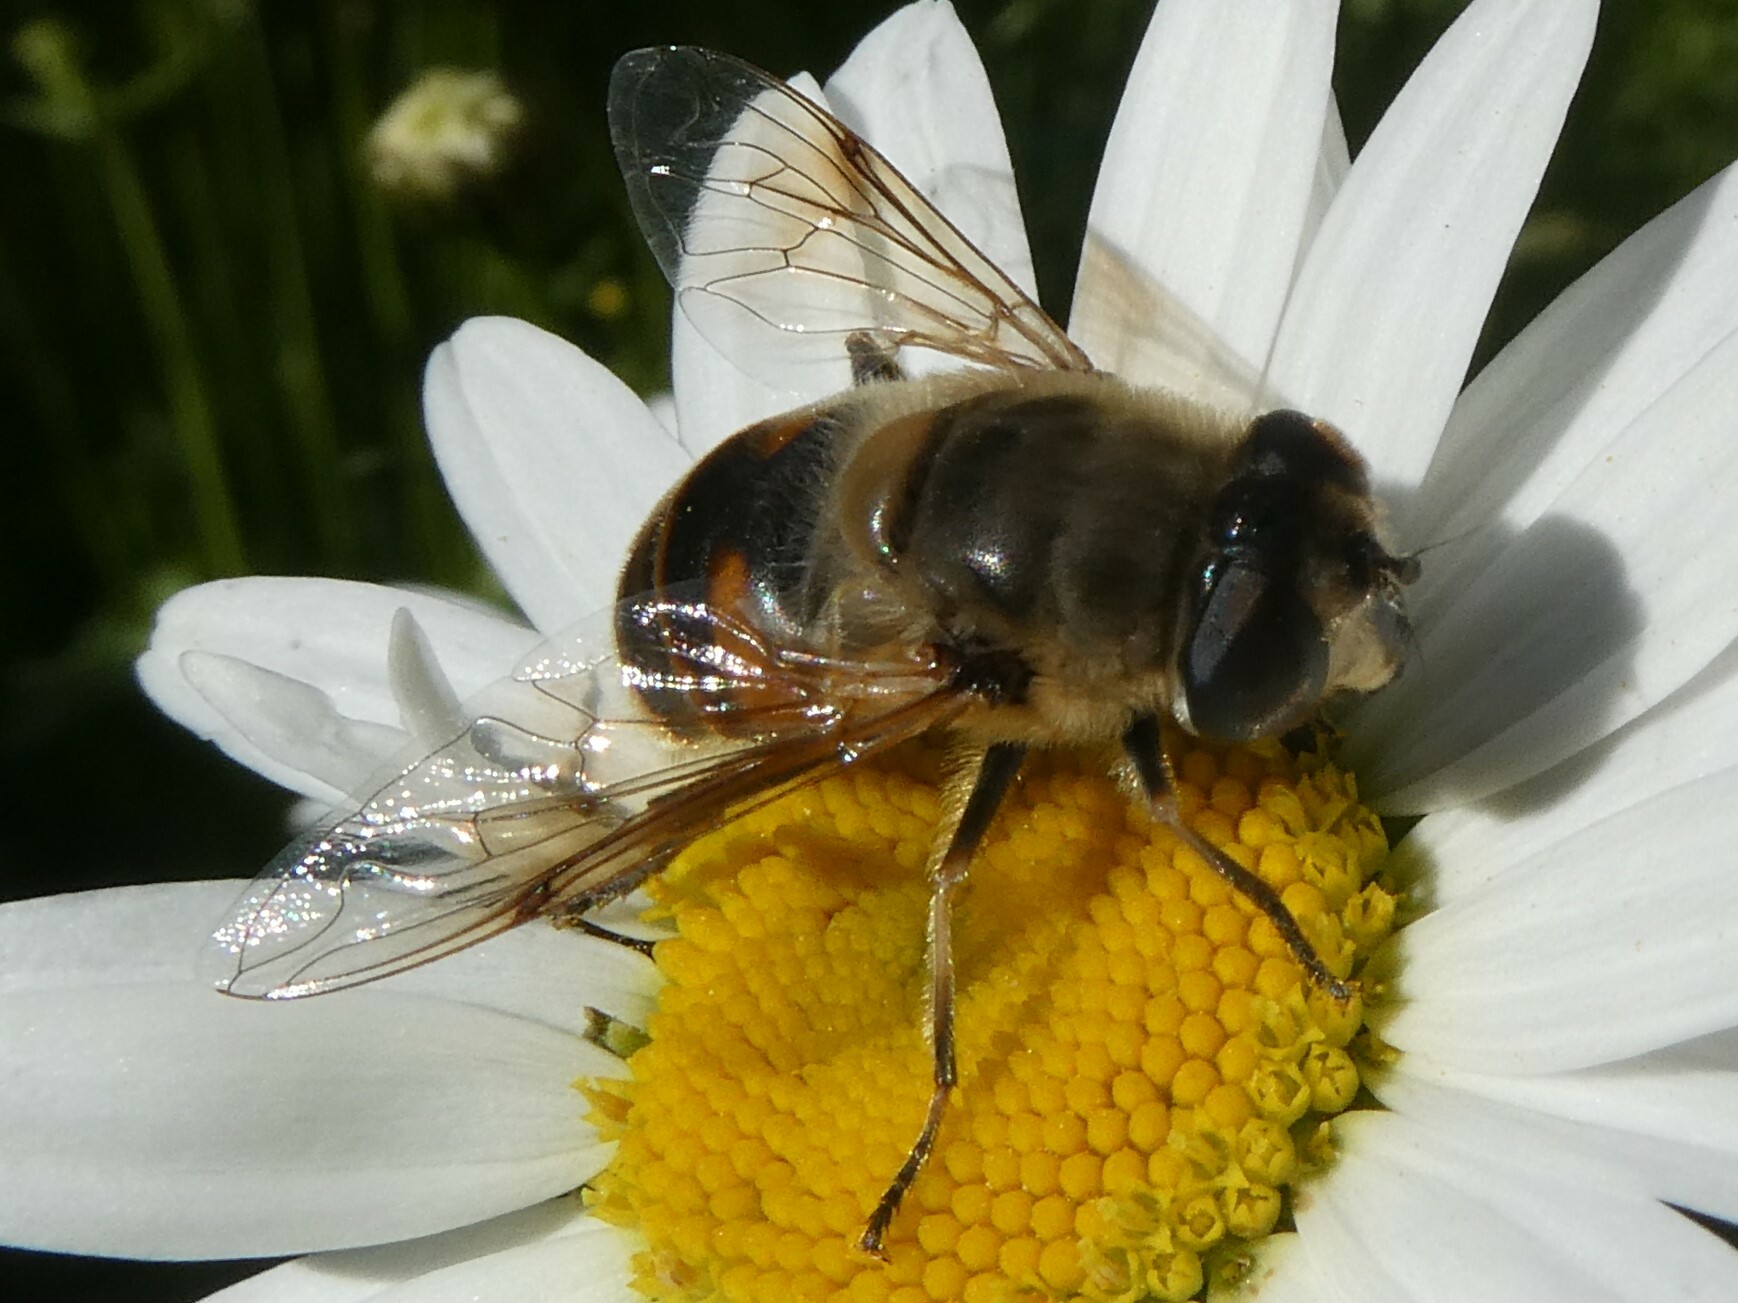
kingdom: Animalia
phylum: Arthropoda
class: Insecta
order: Diptera
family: Syrphidae
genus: Eristalis
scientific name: Eristalis tenax
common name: Drone fly
